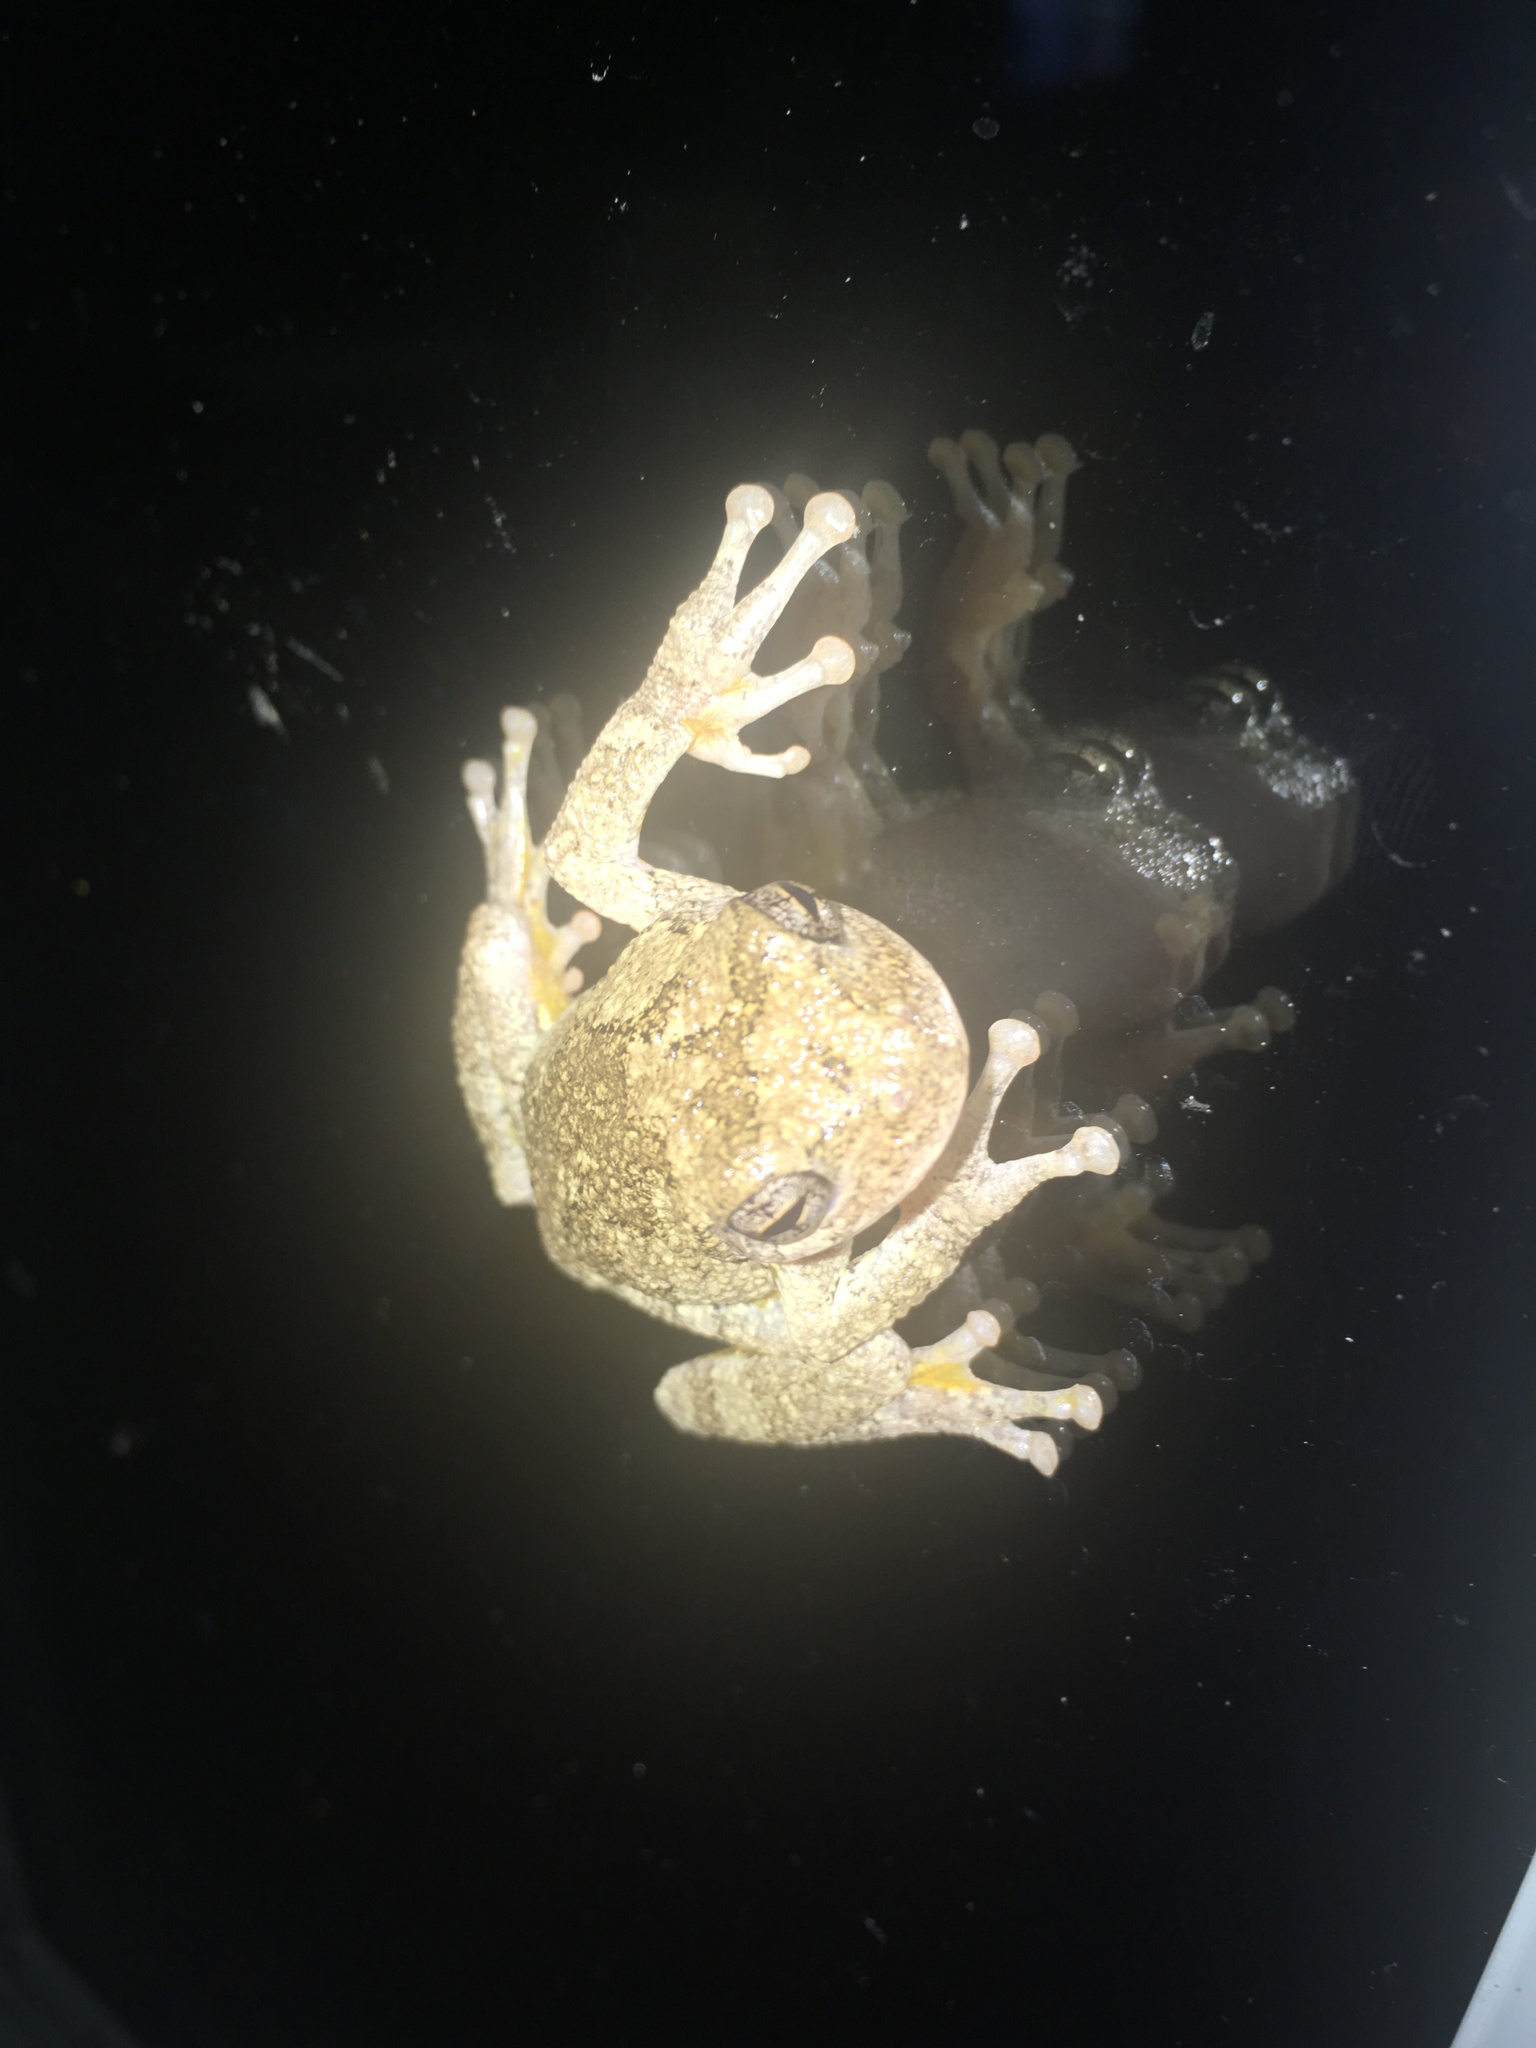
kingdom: Animalia
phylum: Chordata
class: Amphibia
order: Anura
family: Hylidae
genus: Hyla
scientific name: Hyla
